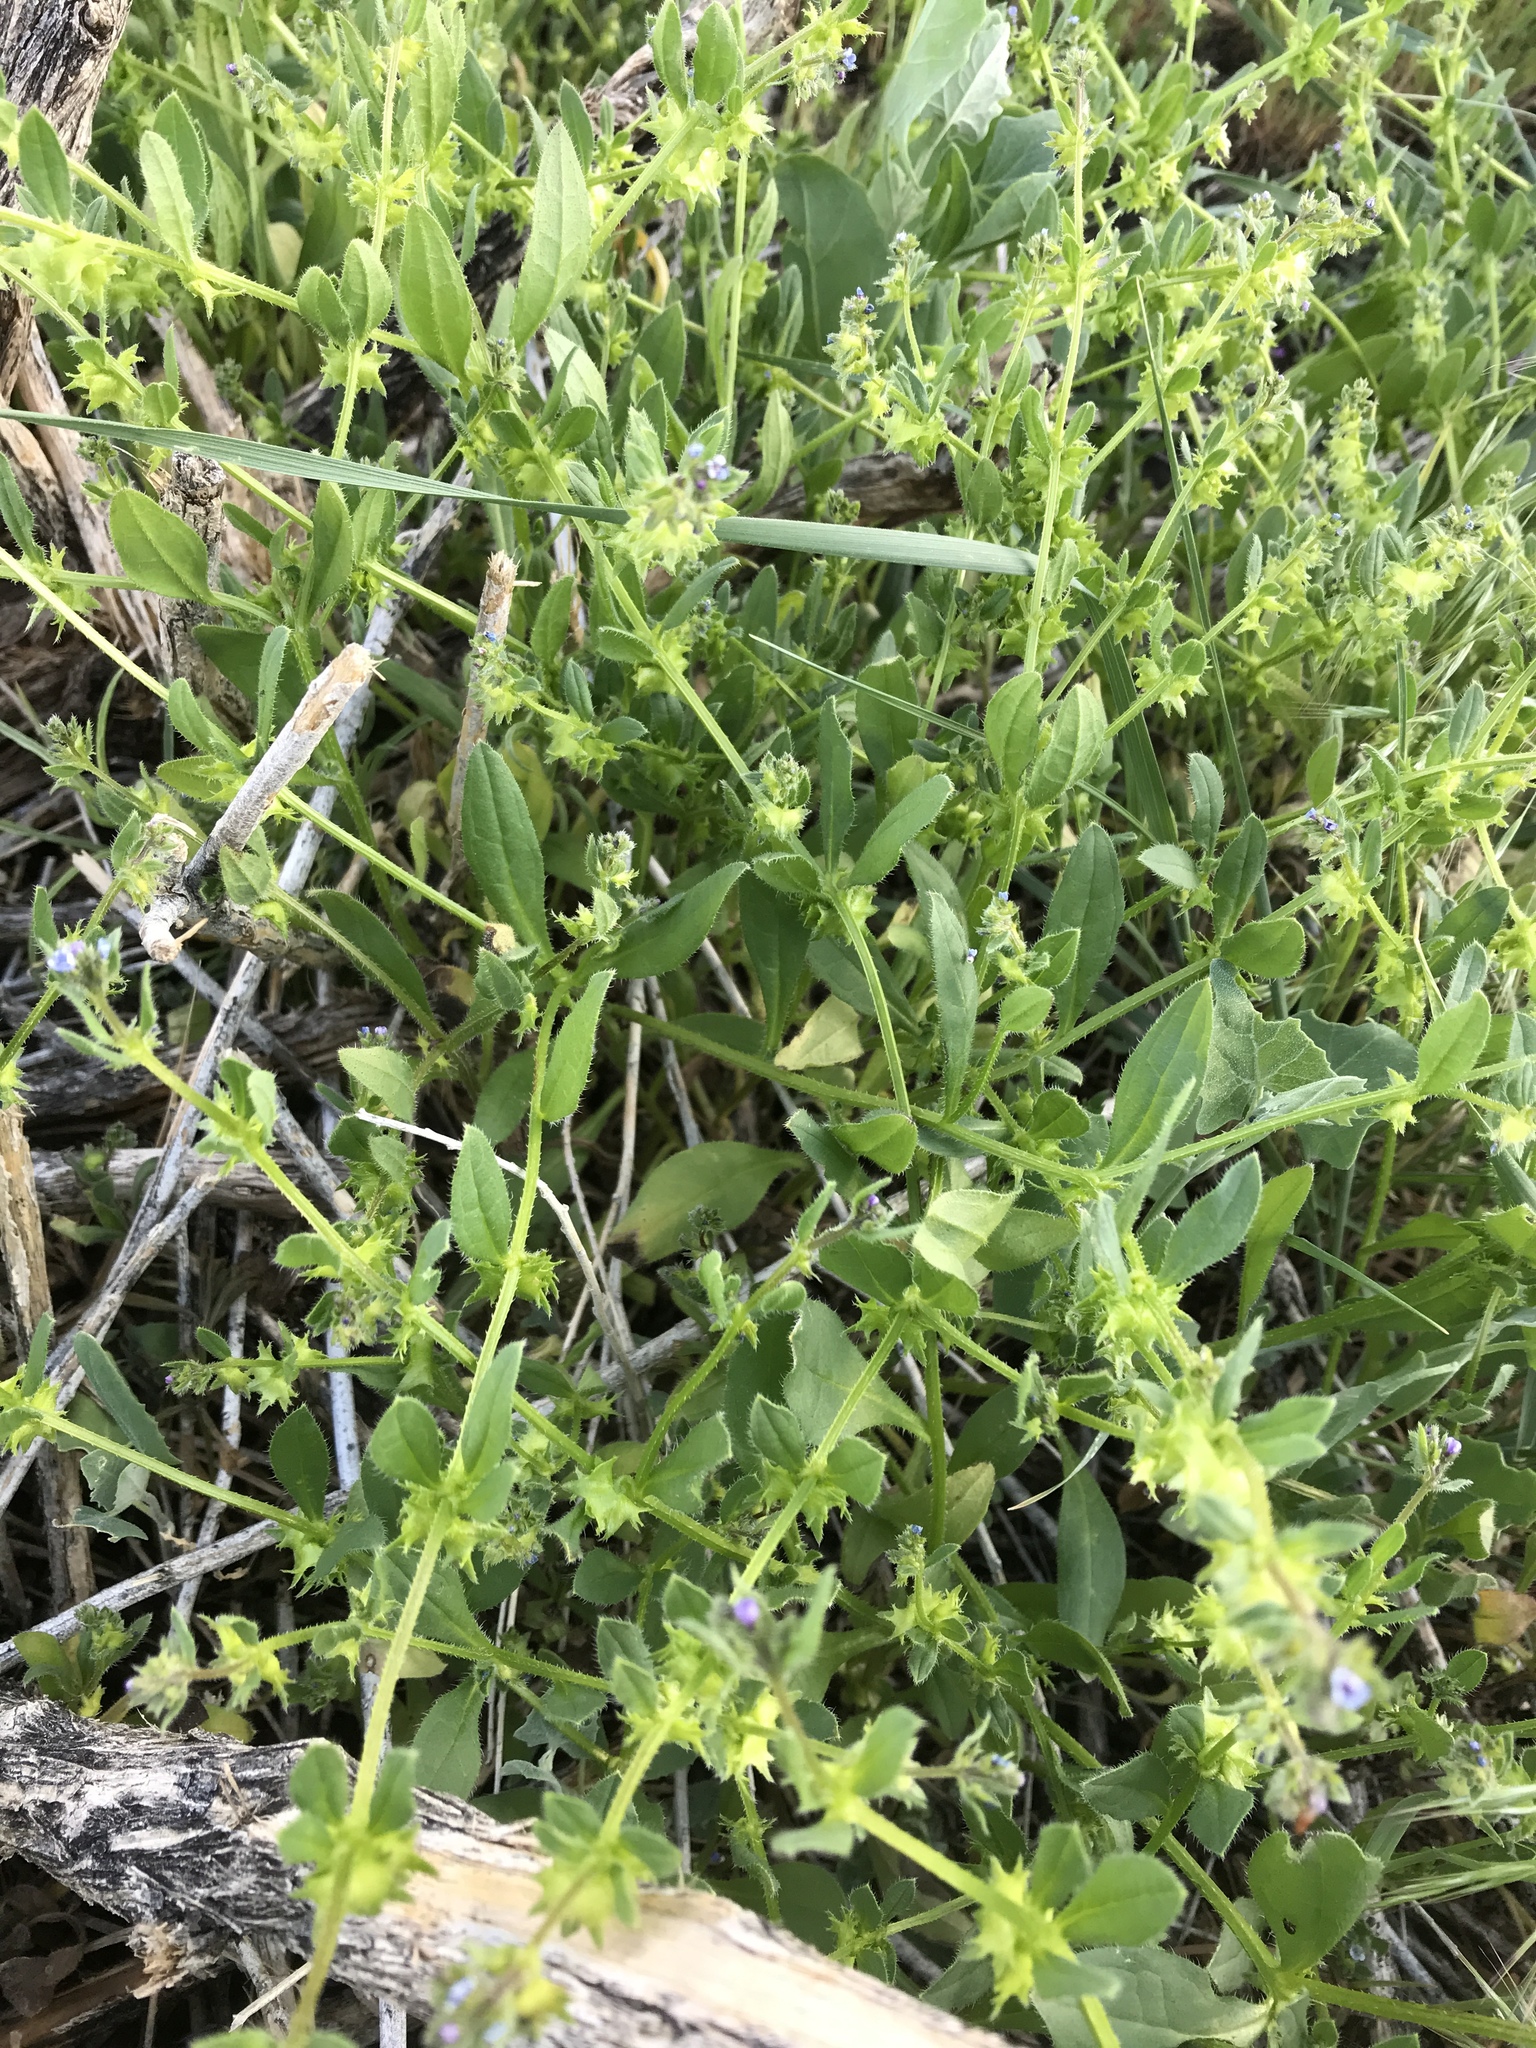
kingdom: Plantae
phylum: Tracheophyta
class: Magnoliopsida
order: Boraginales
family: Boraginaceae
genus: Asperugo
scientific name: Asperugo procumbens
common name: Madwort
